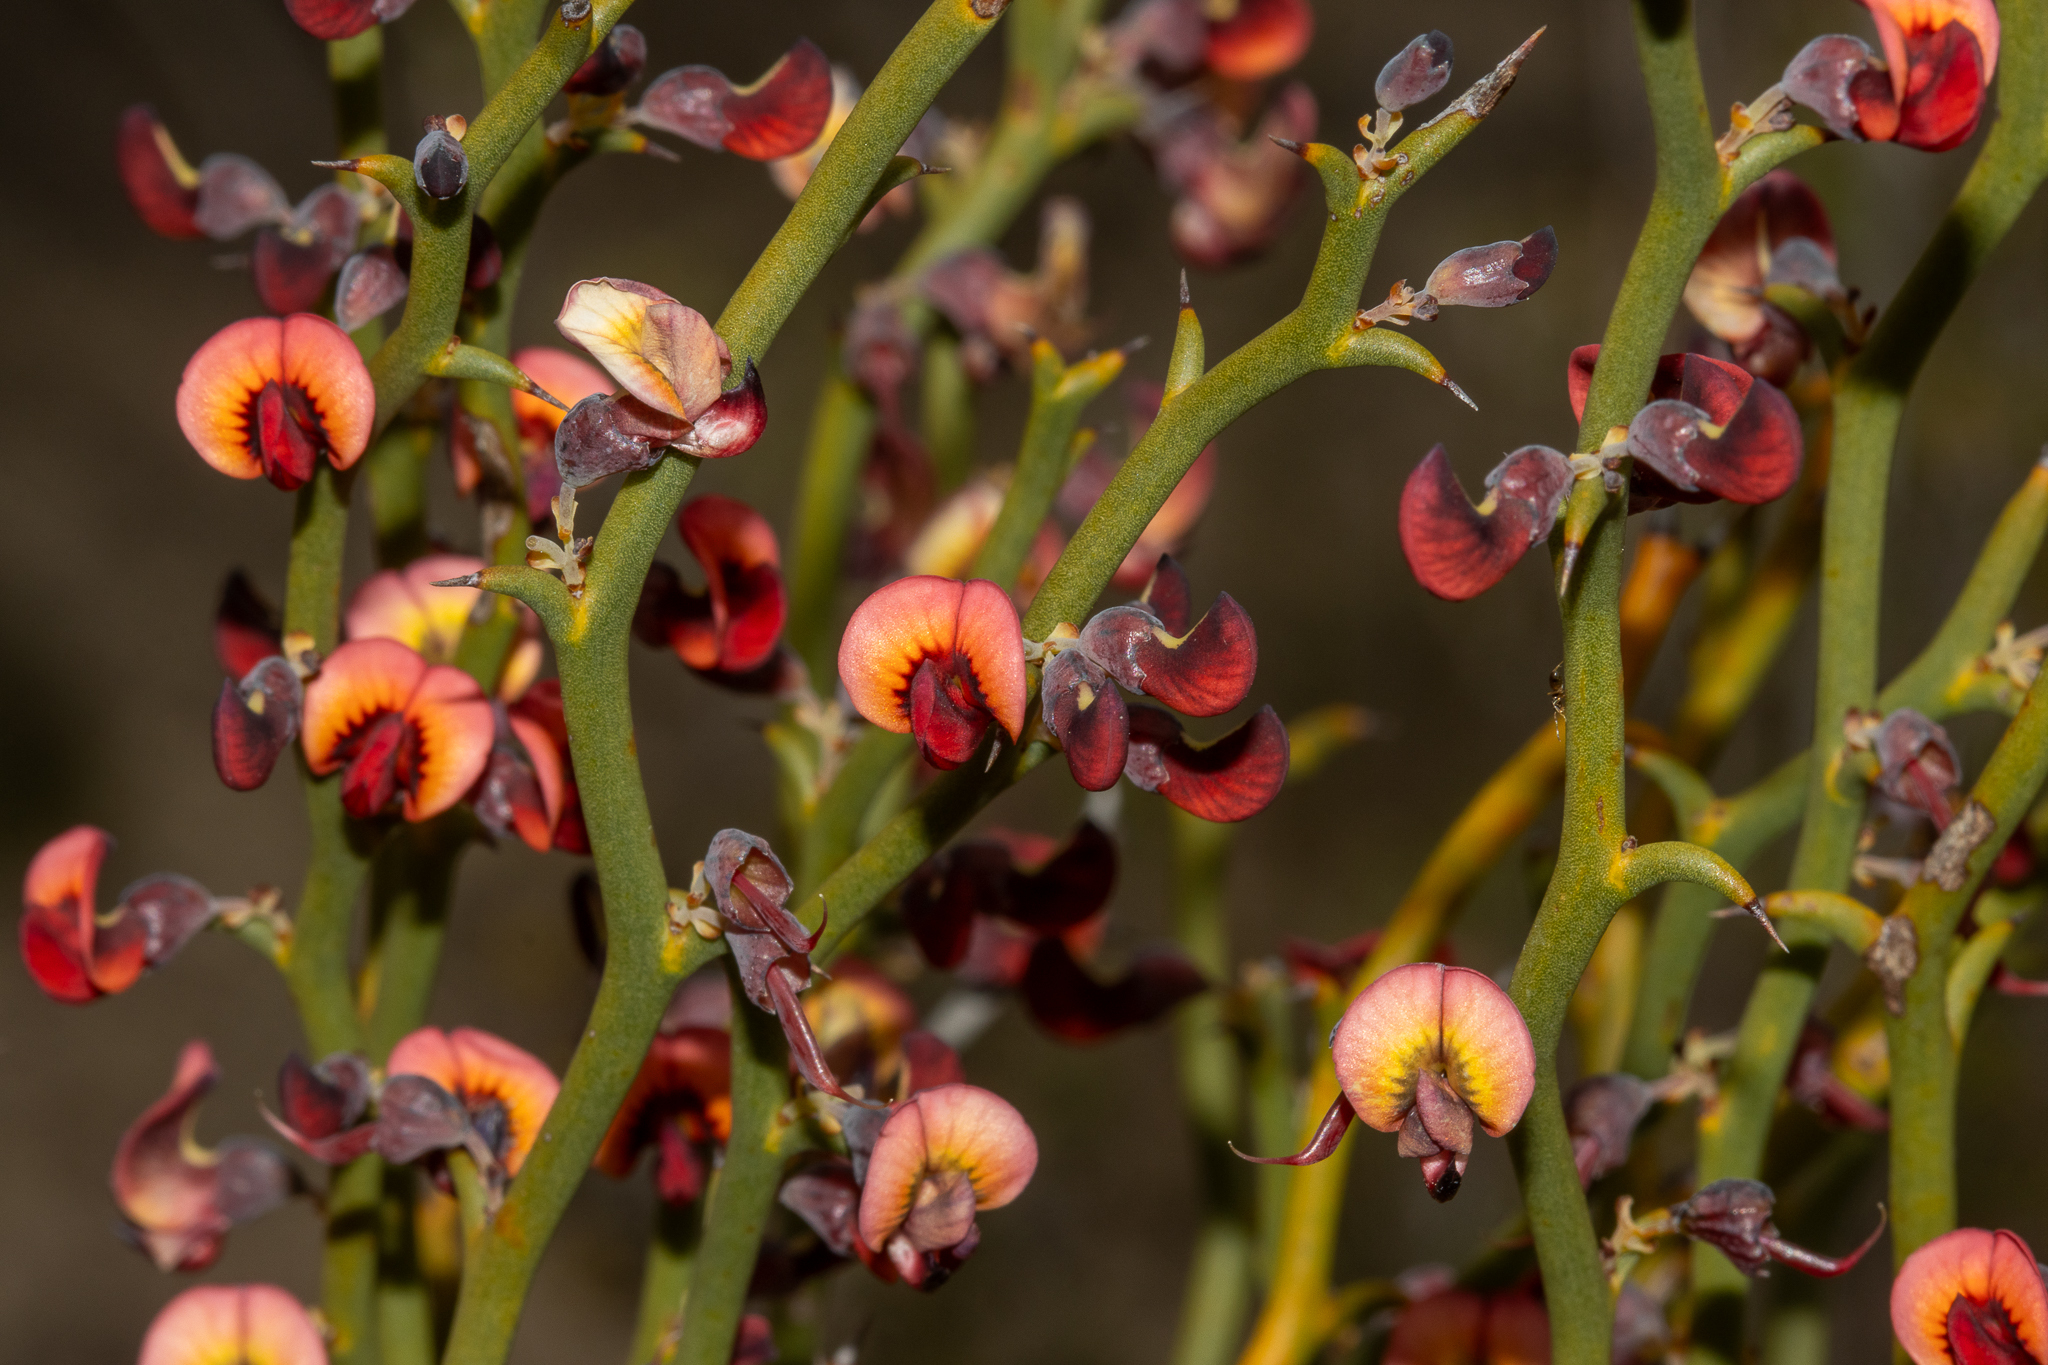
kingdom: Plantae
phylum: Tracheophyta
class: Magnoliopsida
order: Fabales
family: Fabaceae
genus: Daviesia
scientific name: Daviesia brevifolia
